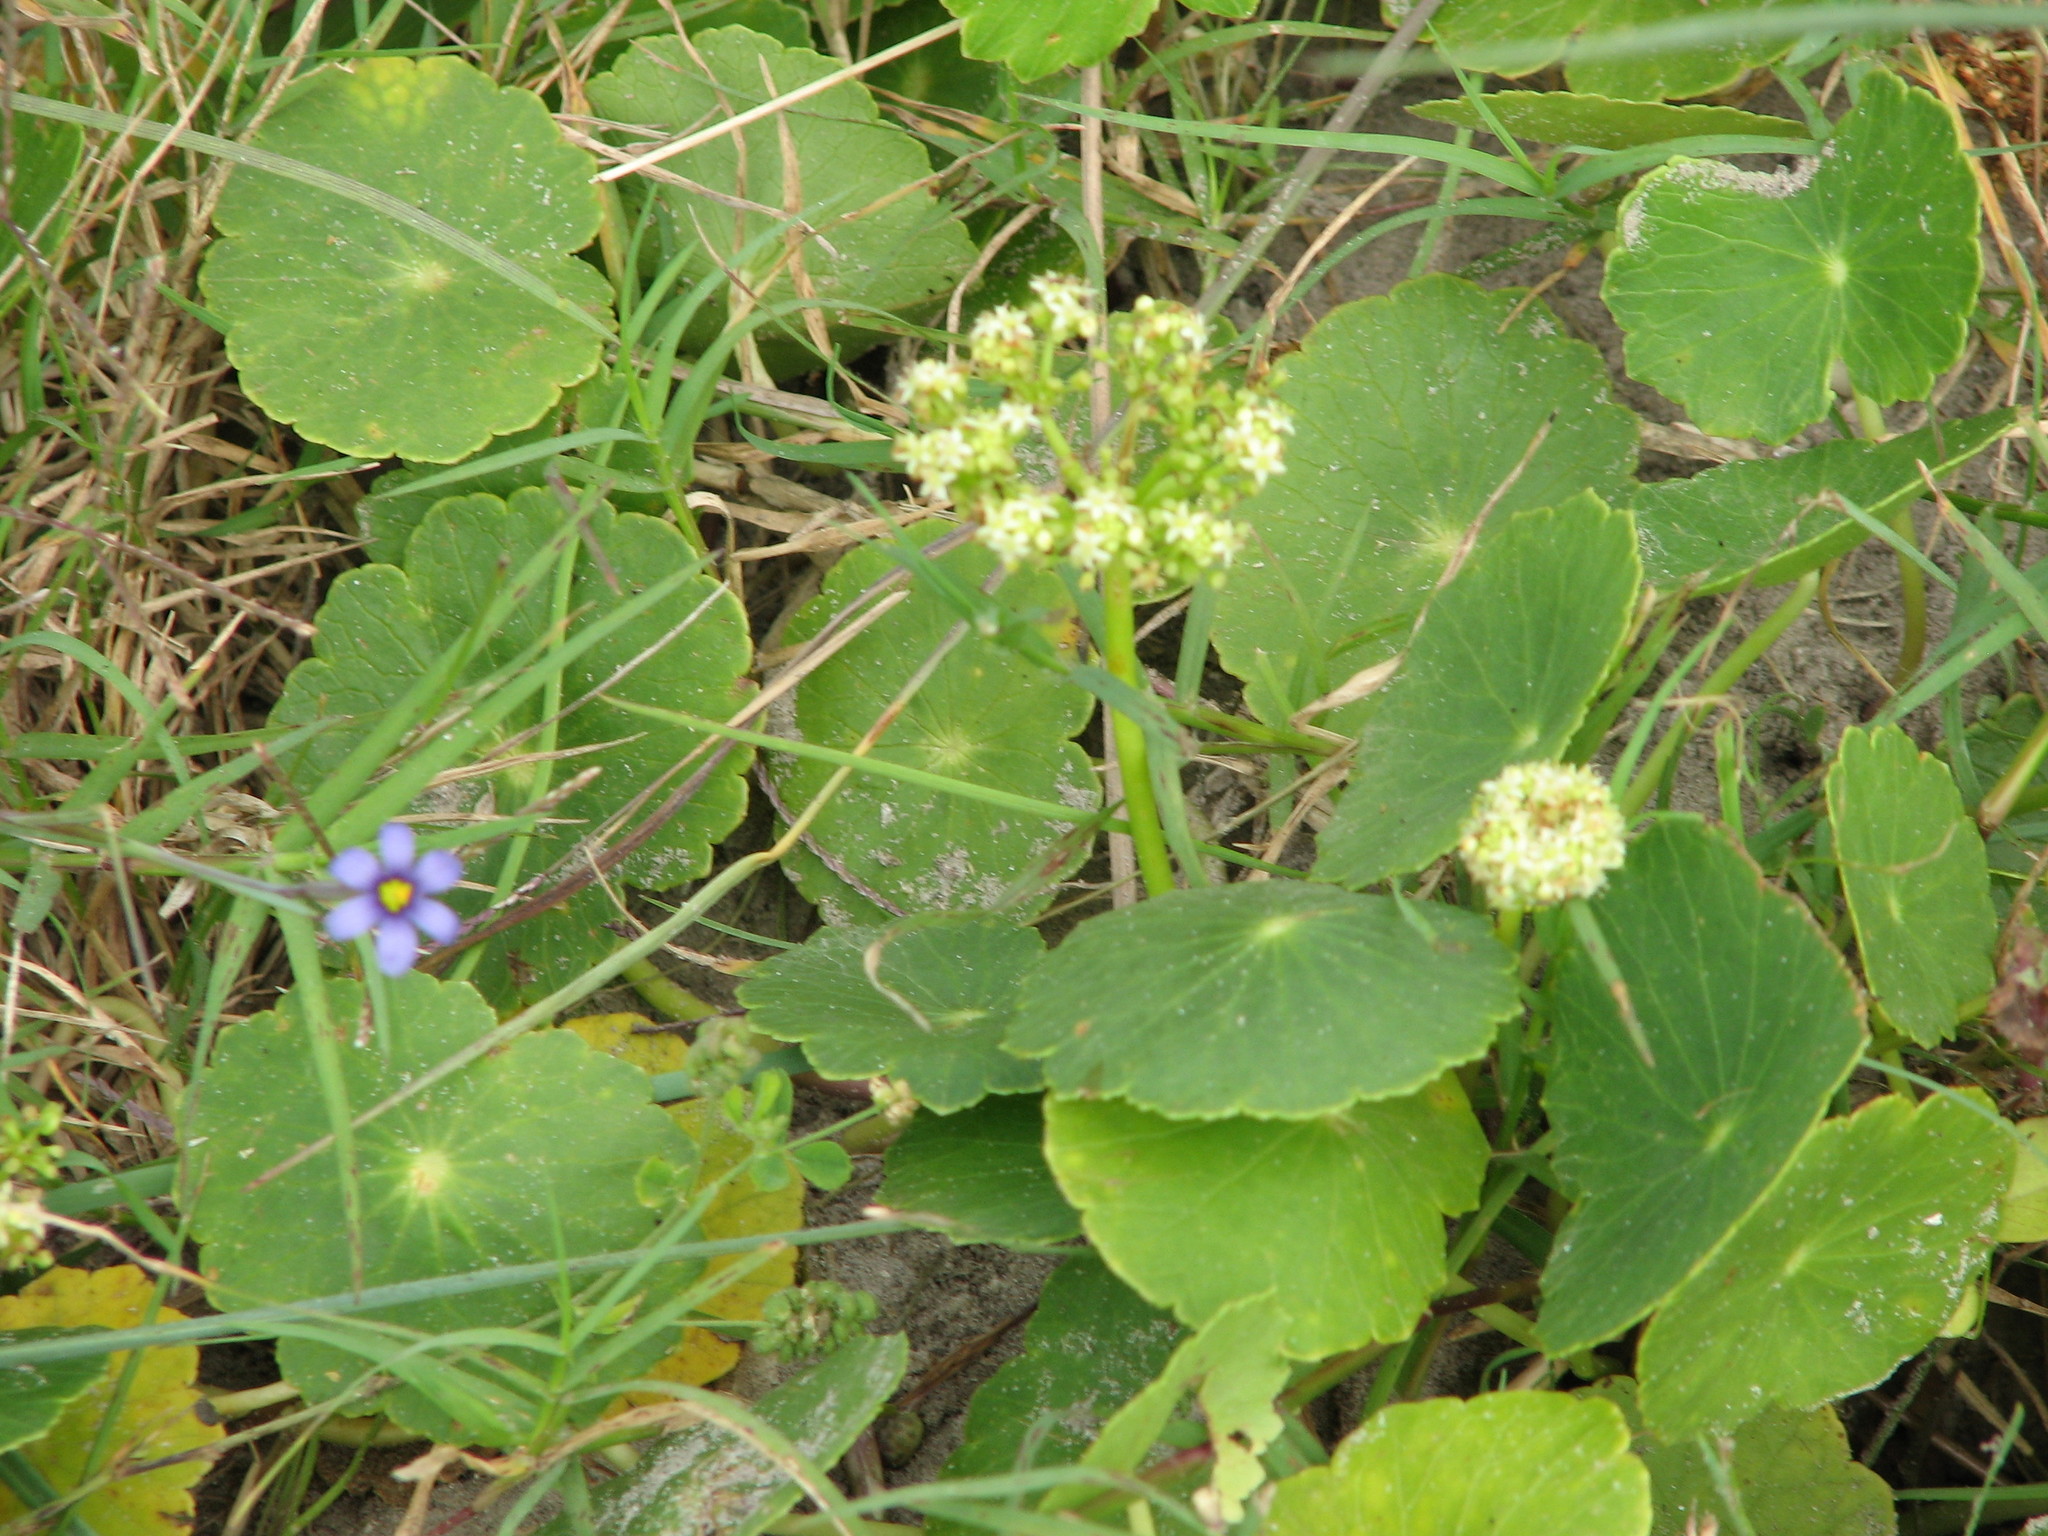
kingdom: Plantae
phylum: Tracheophyta
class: Magnoliopsida
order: Apiales
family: Araliaceae
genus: Hydrocotyle
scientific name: Hydrocotyle bonariensis
